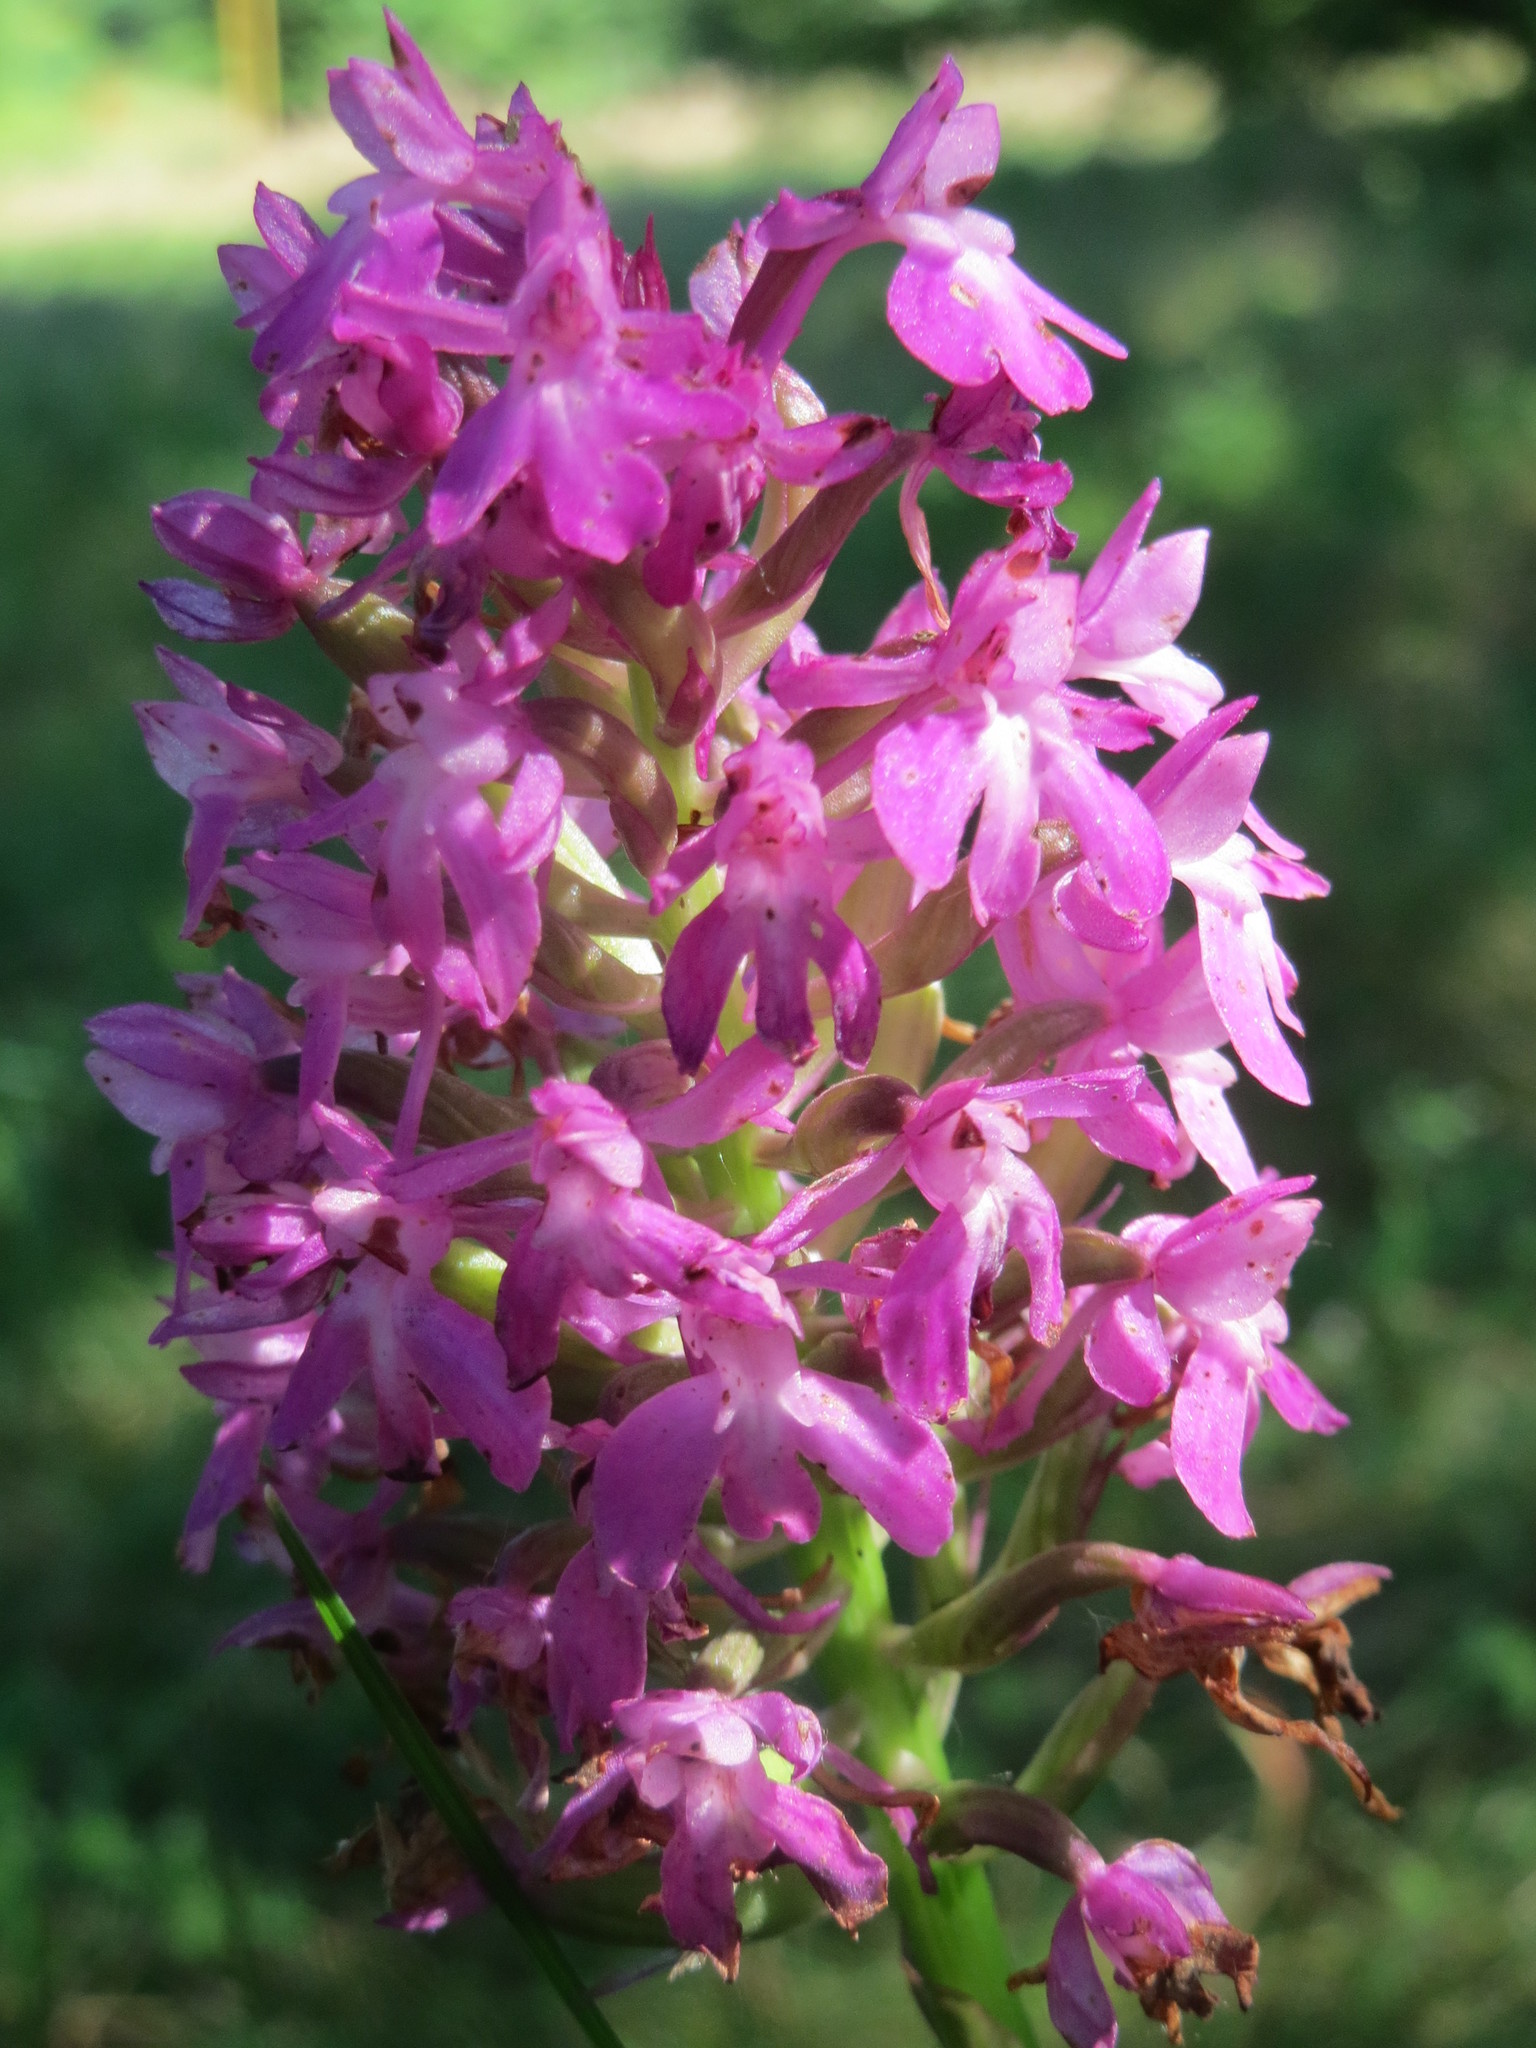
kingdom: Plantae
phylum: Tracheophyta
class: Liliopsida
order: Asparagales
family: Orchidaceae
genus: Anacamptis
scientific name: Anacamptis pyramidalis
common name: Pyramidal orchid
